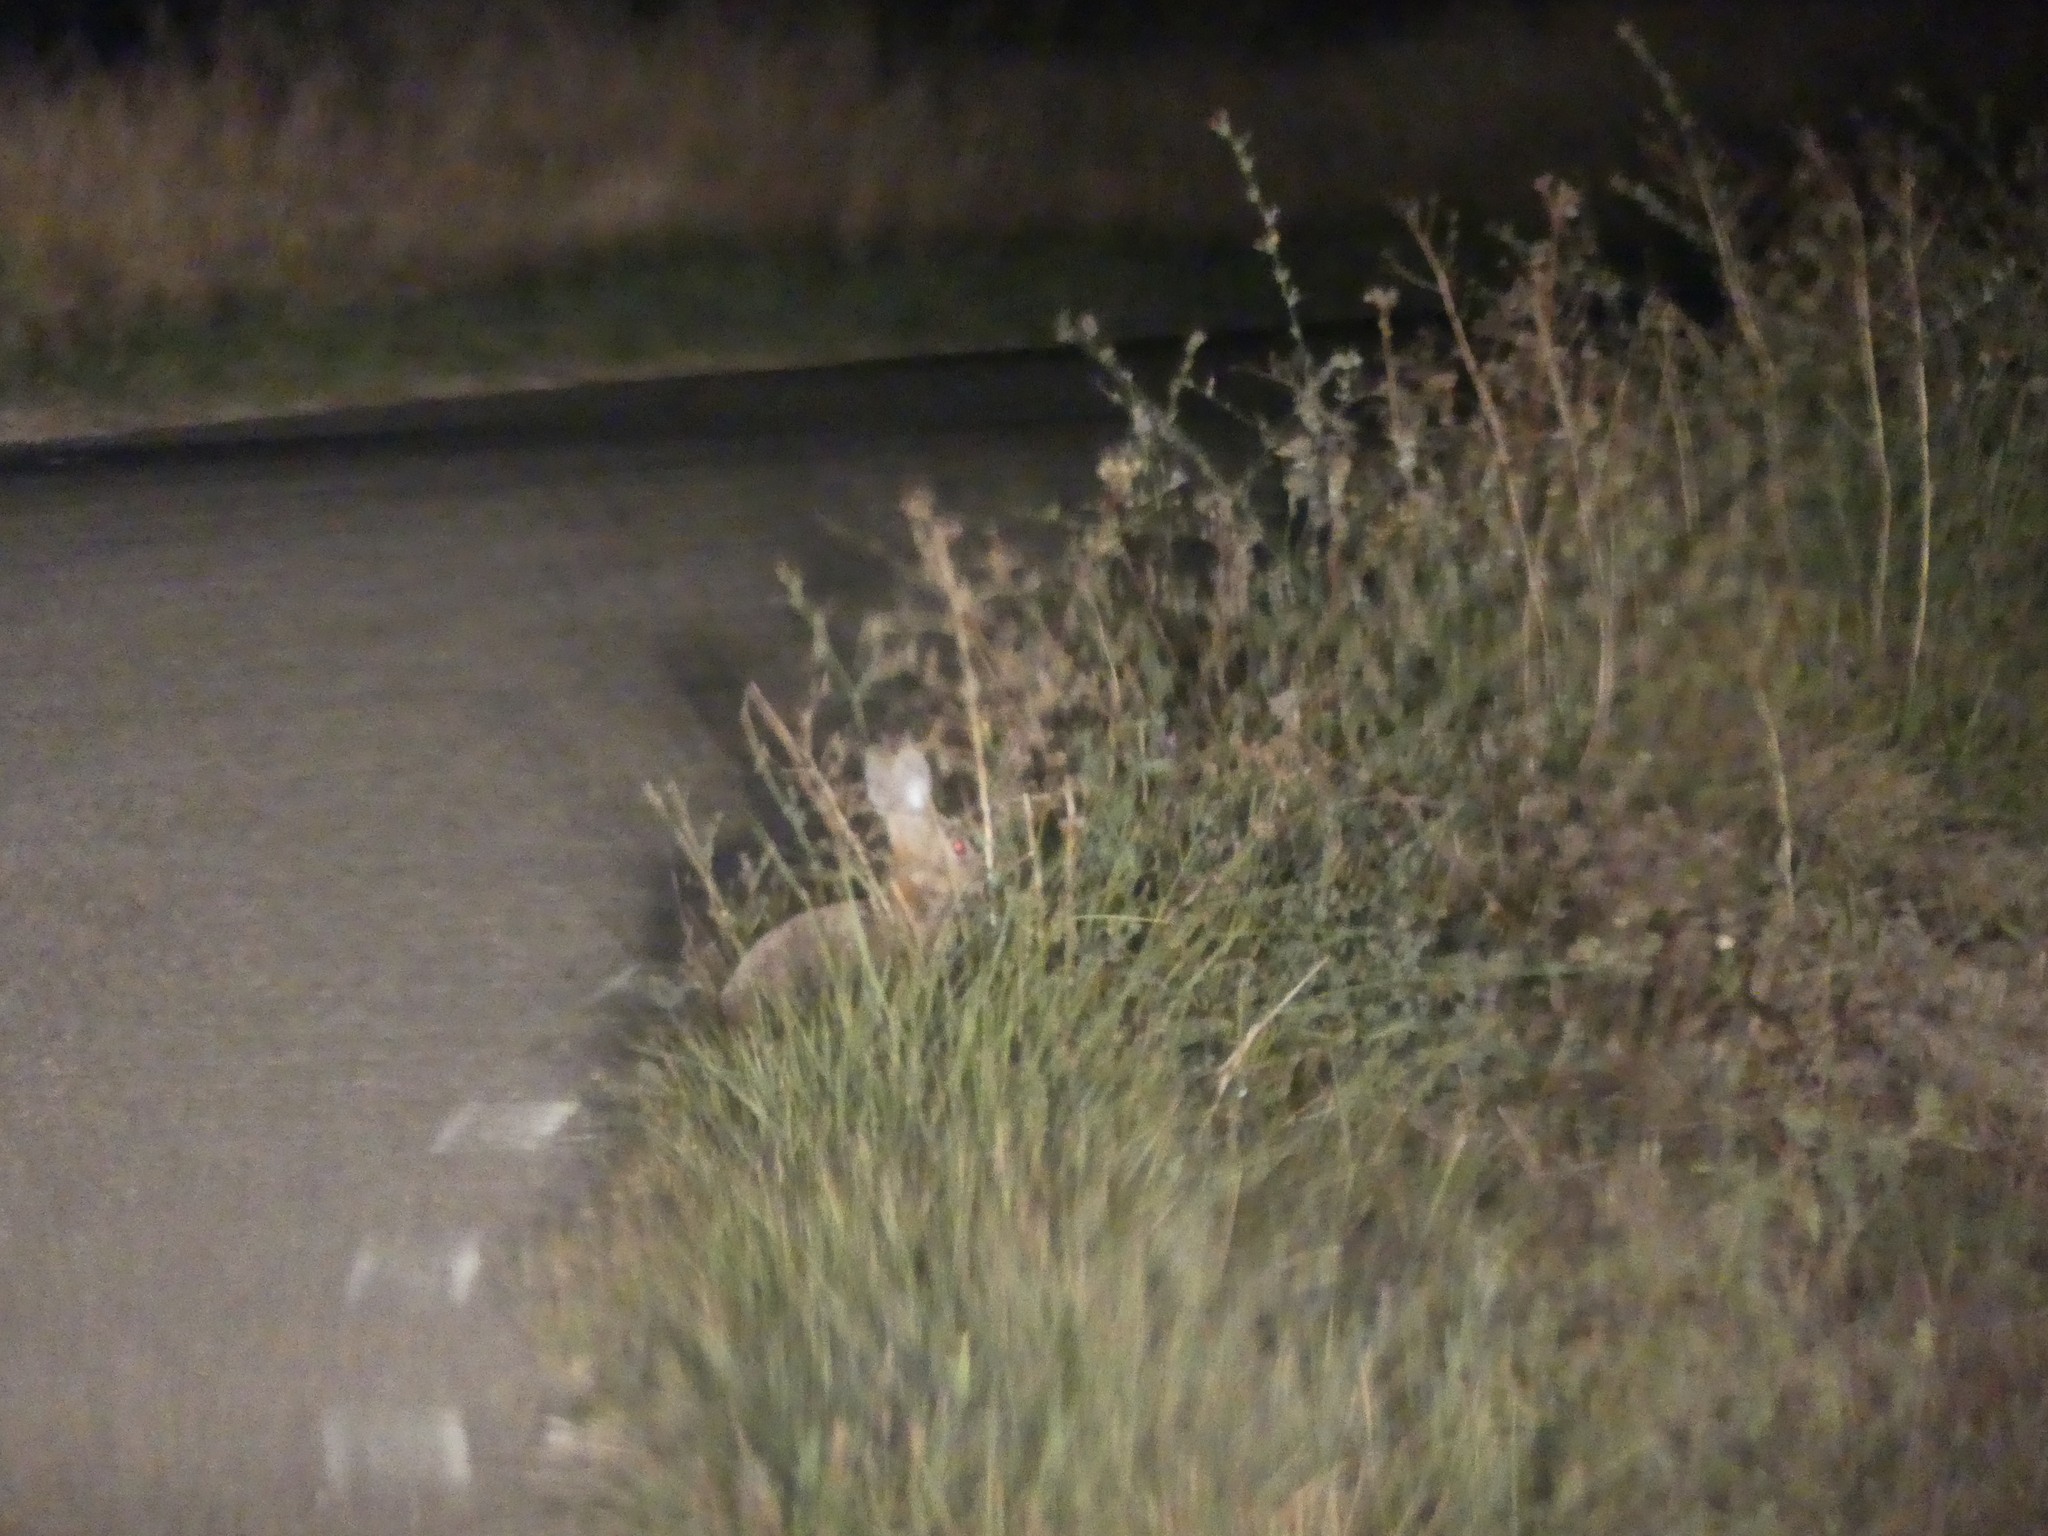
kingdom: Animalia
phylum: Chordata
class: Mammalia
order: Lagomorpha
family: Leporidae
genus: Oryctolagus
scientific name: Oryctolagus cuniculus
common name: European rabbit
